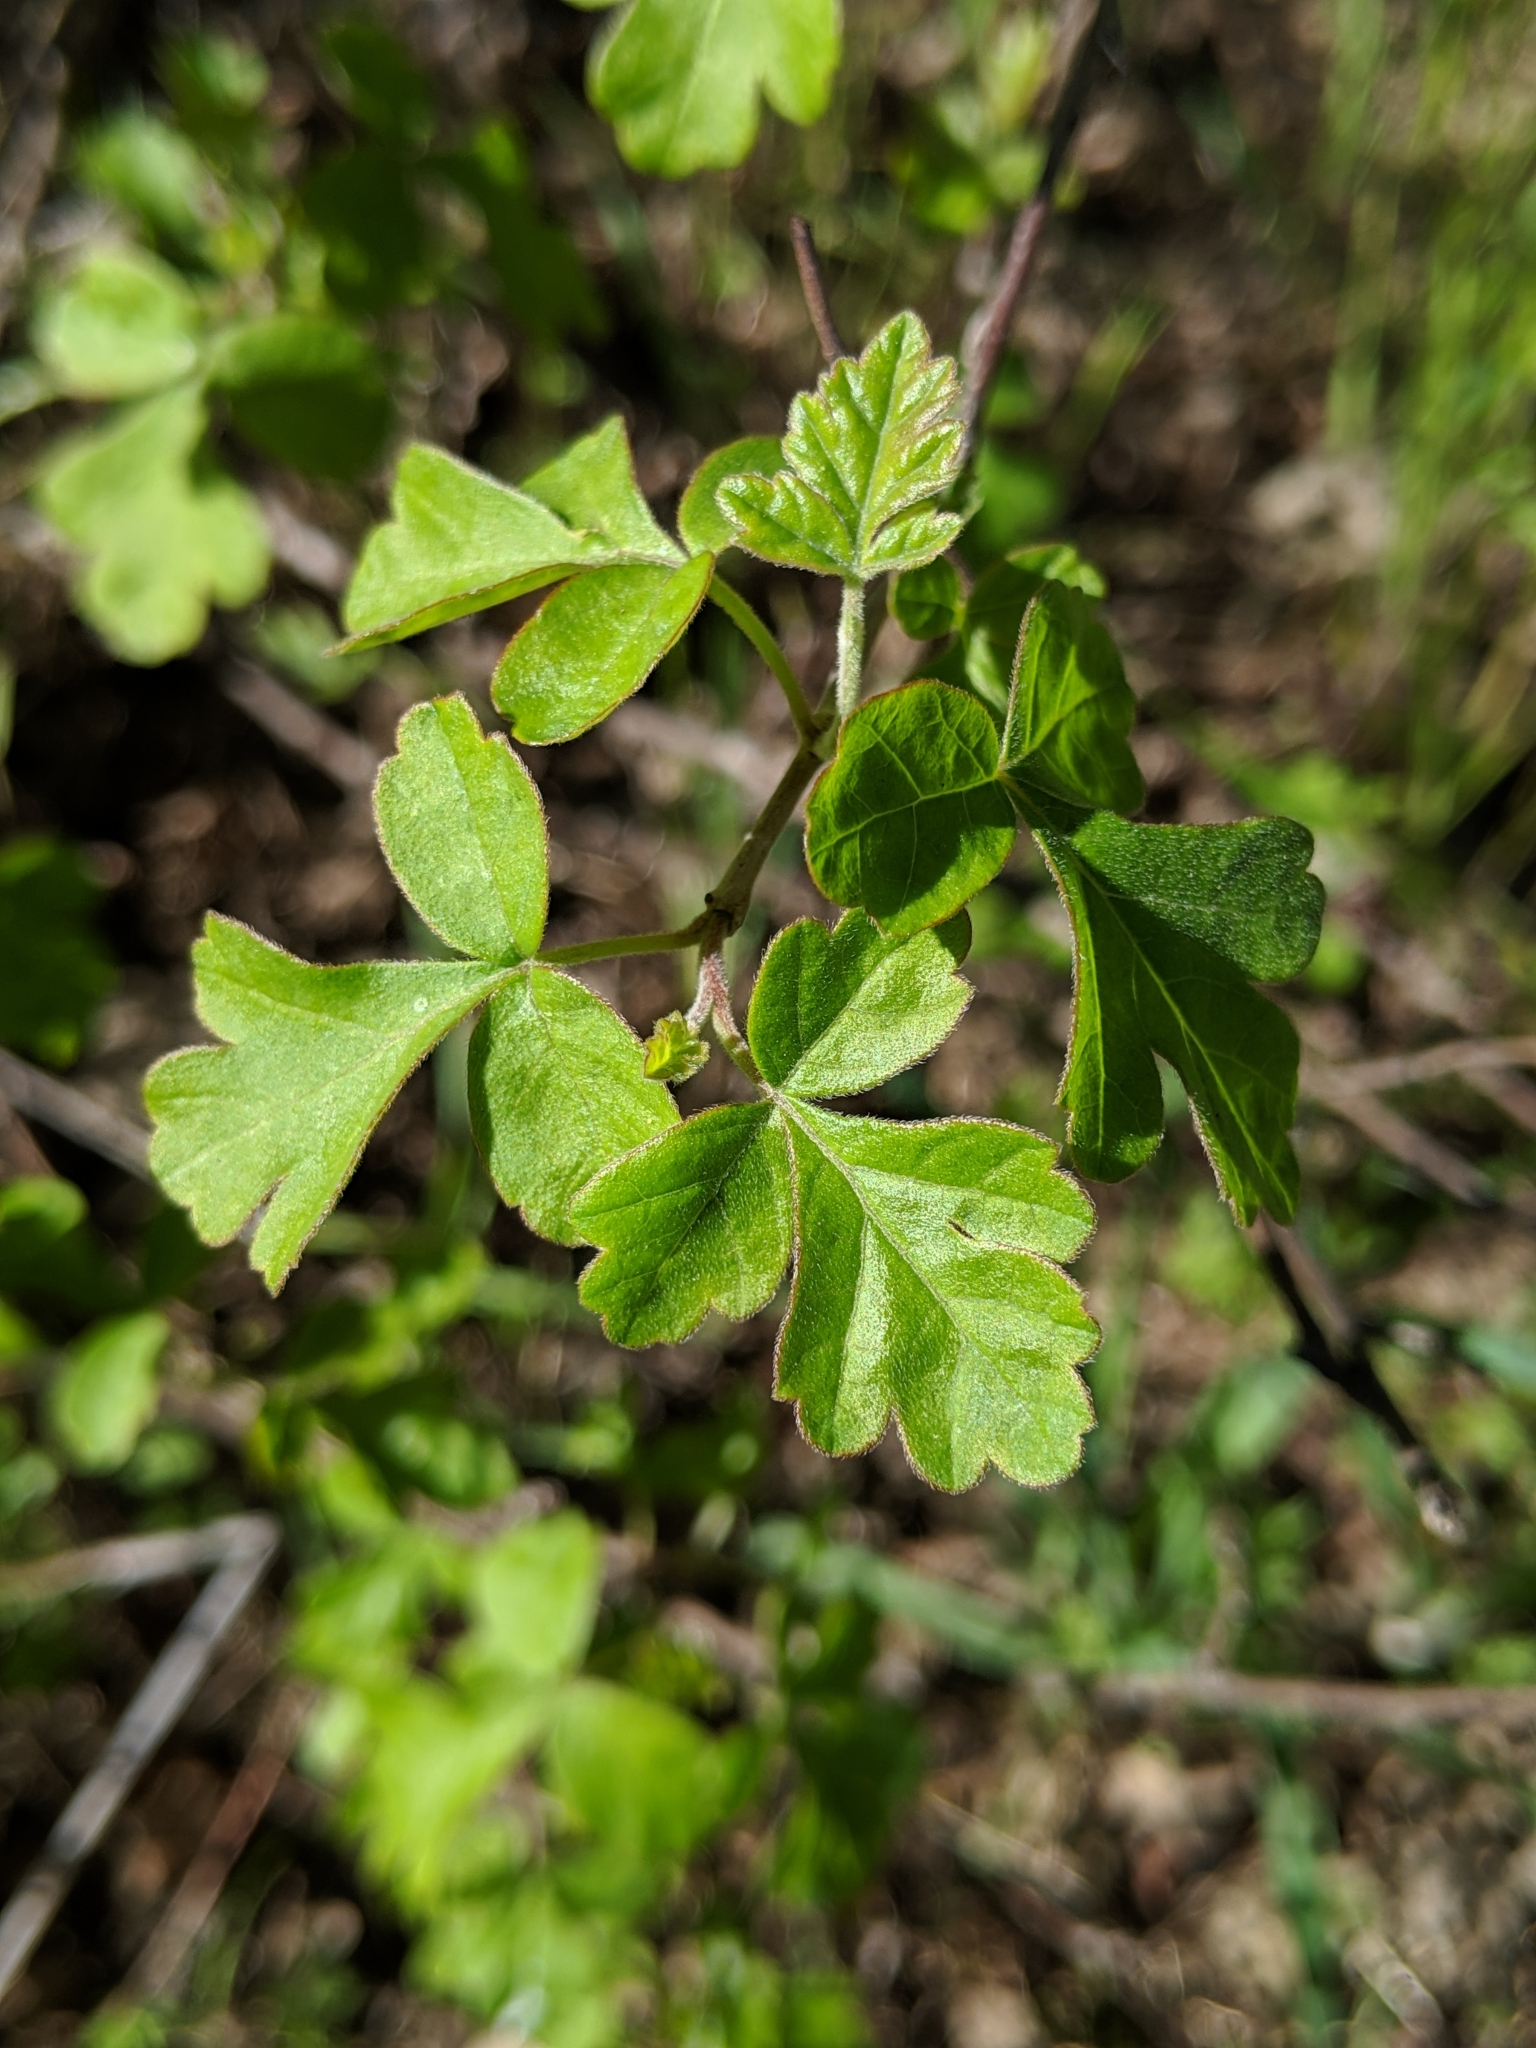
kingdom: Plantae
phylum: Tracheophyta
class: Magnoliopsida
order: Sapindales
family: Anacardiaceae
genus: Rhus
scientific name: Rhus aromatica
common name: Aromatic sumac
